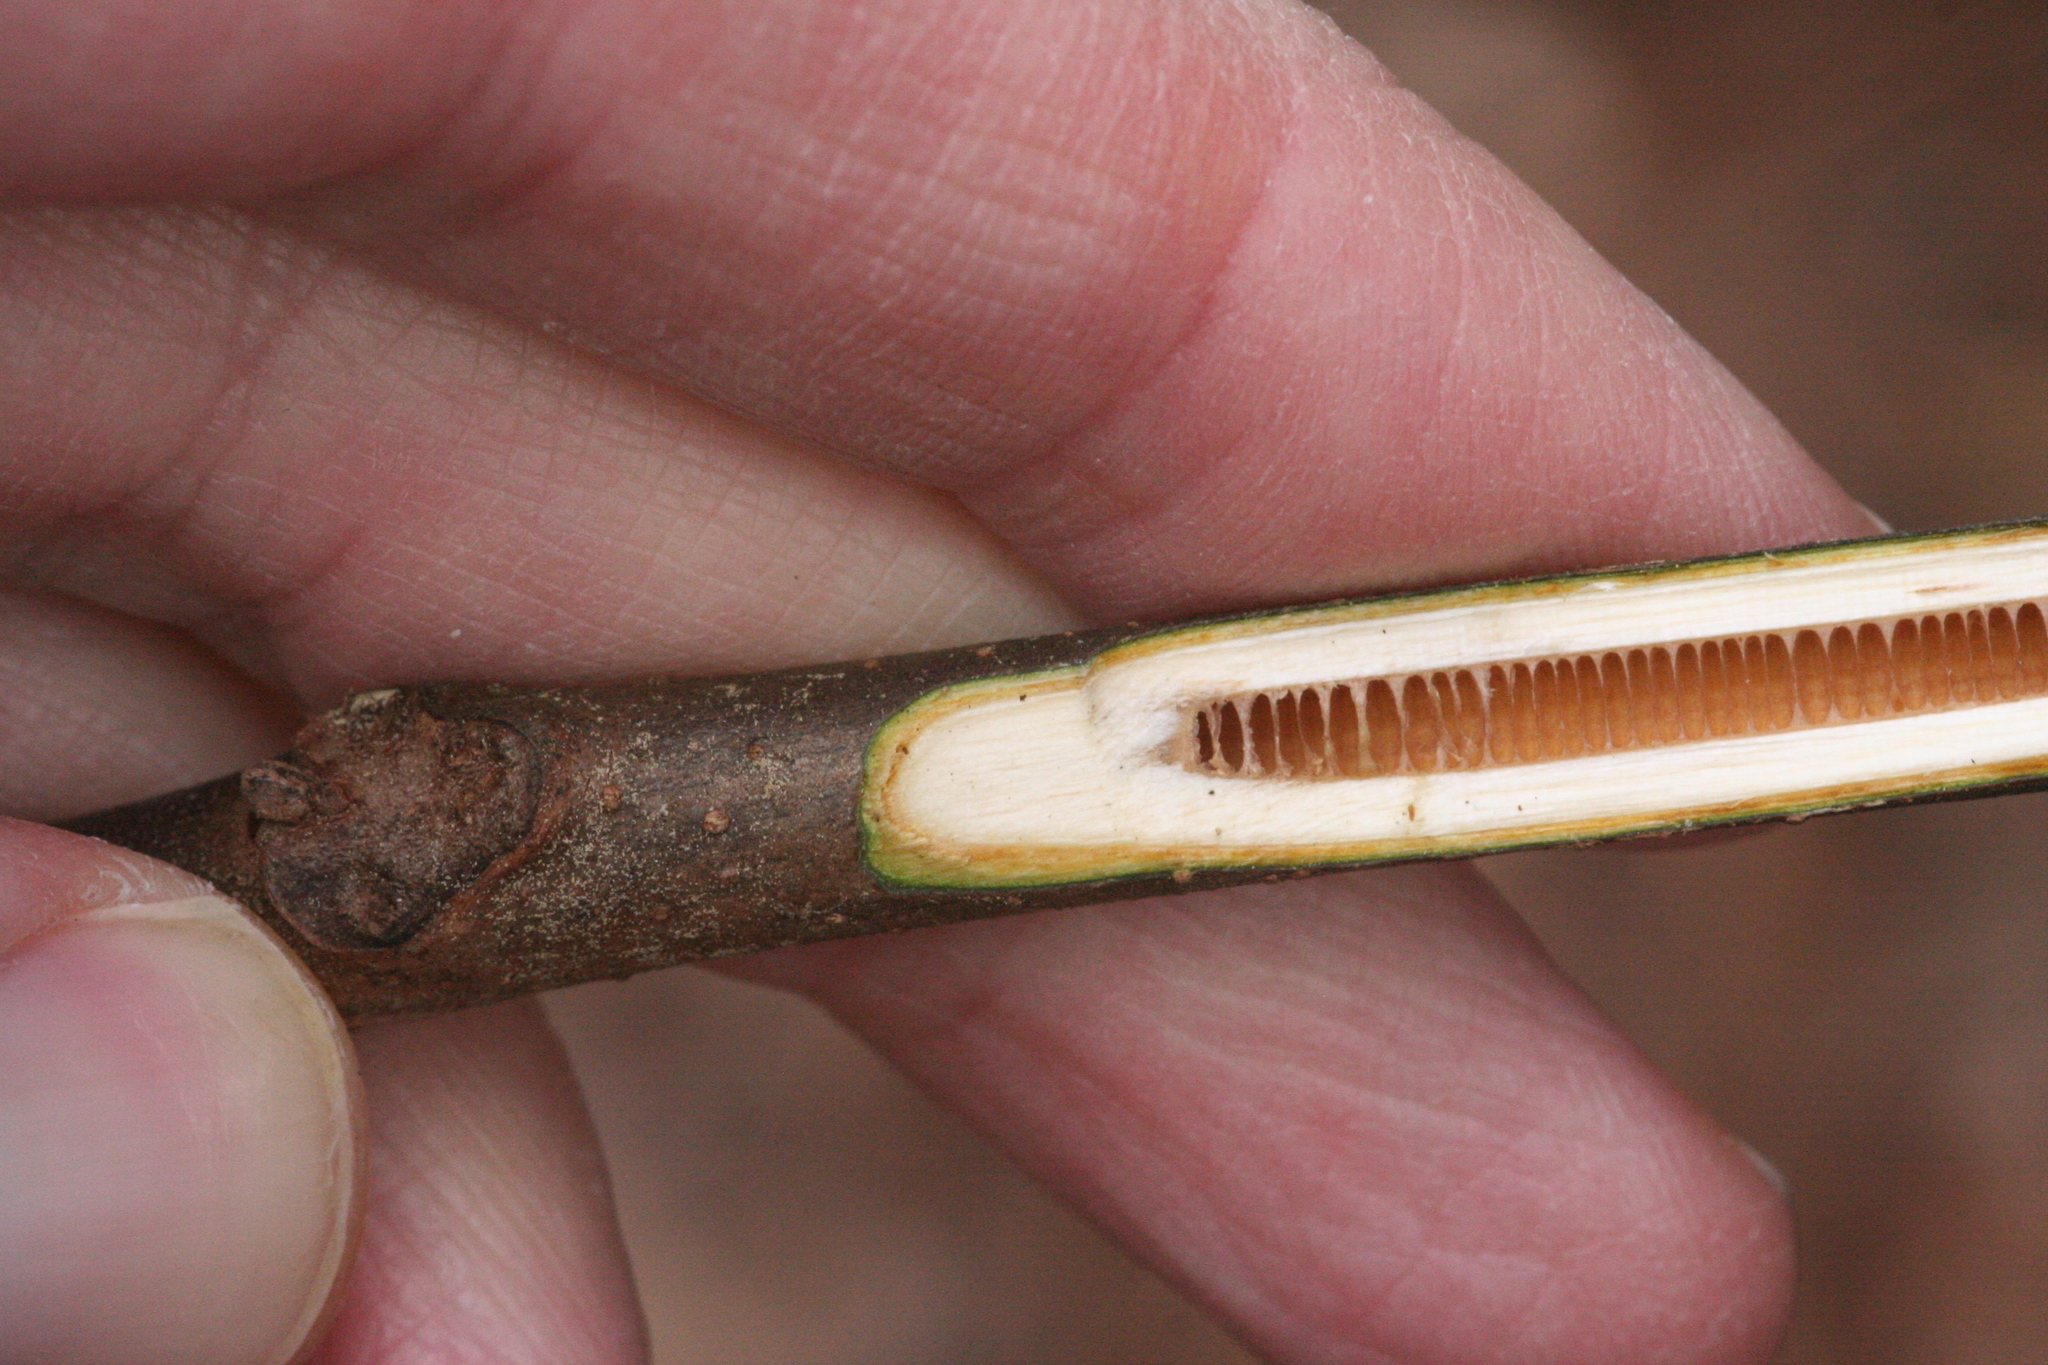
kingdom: Plantae
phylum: Tracheophyta
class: Magnoliopsida
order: Fagales
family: Juglandaceae
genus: Juglans
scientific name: Juglans nigra
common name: Black walnut
